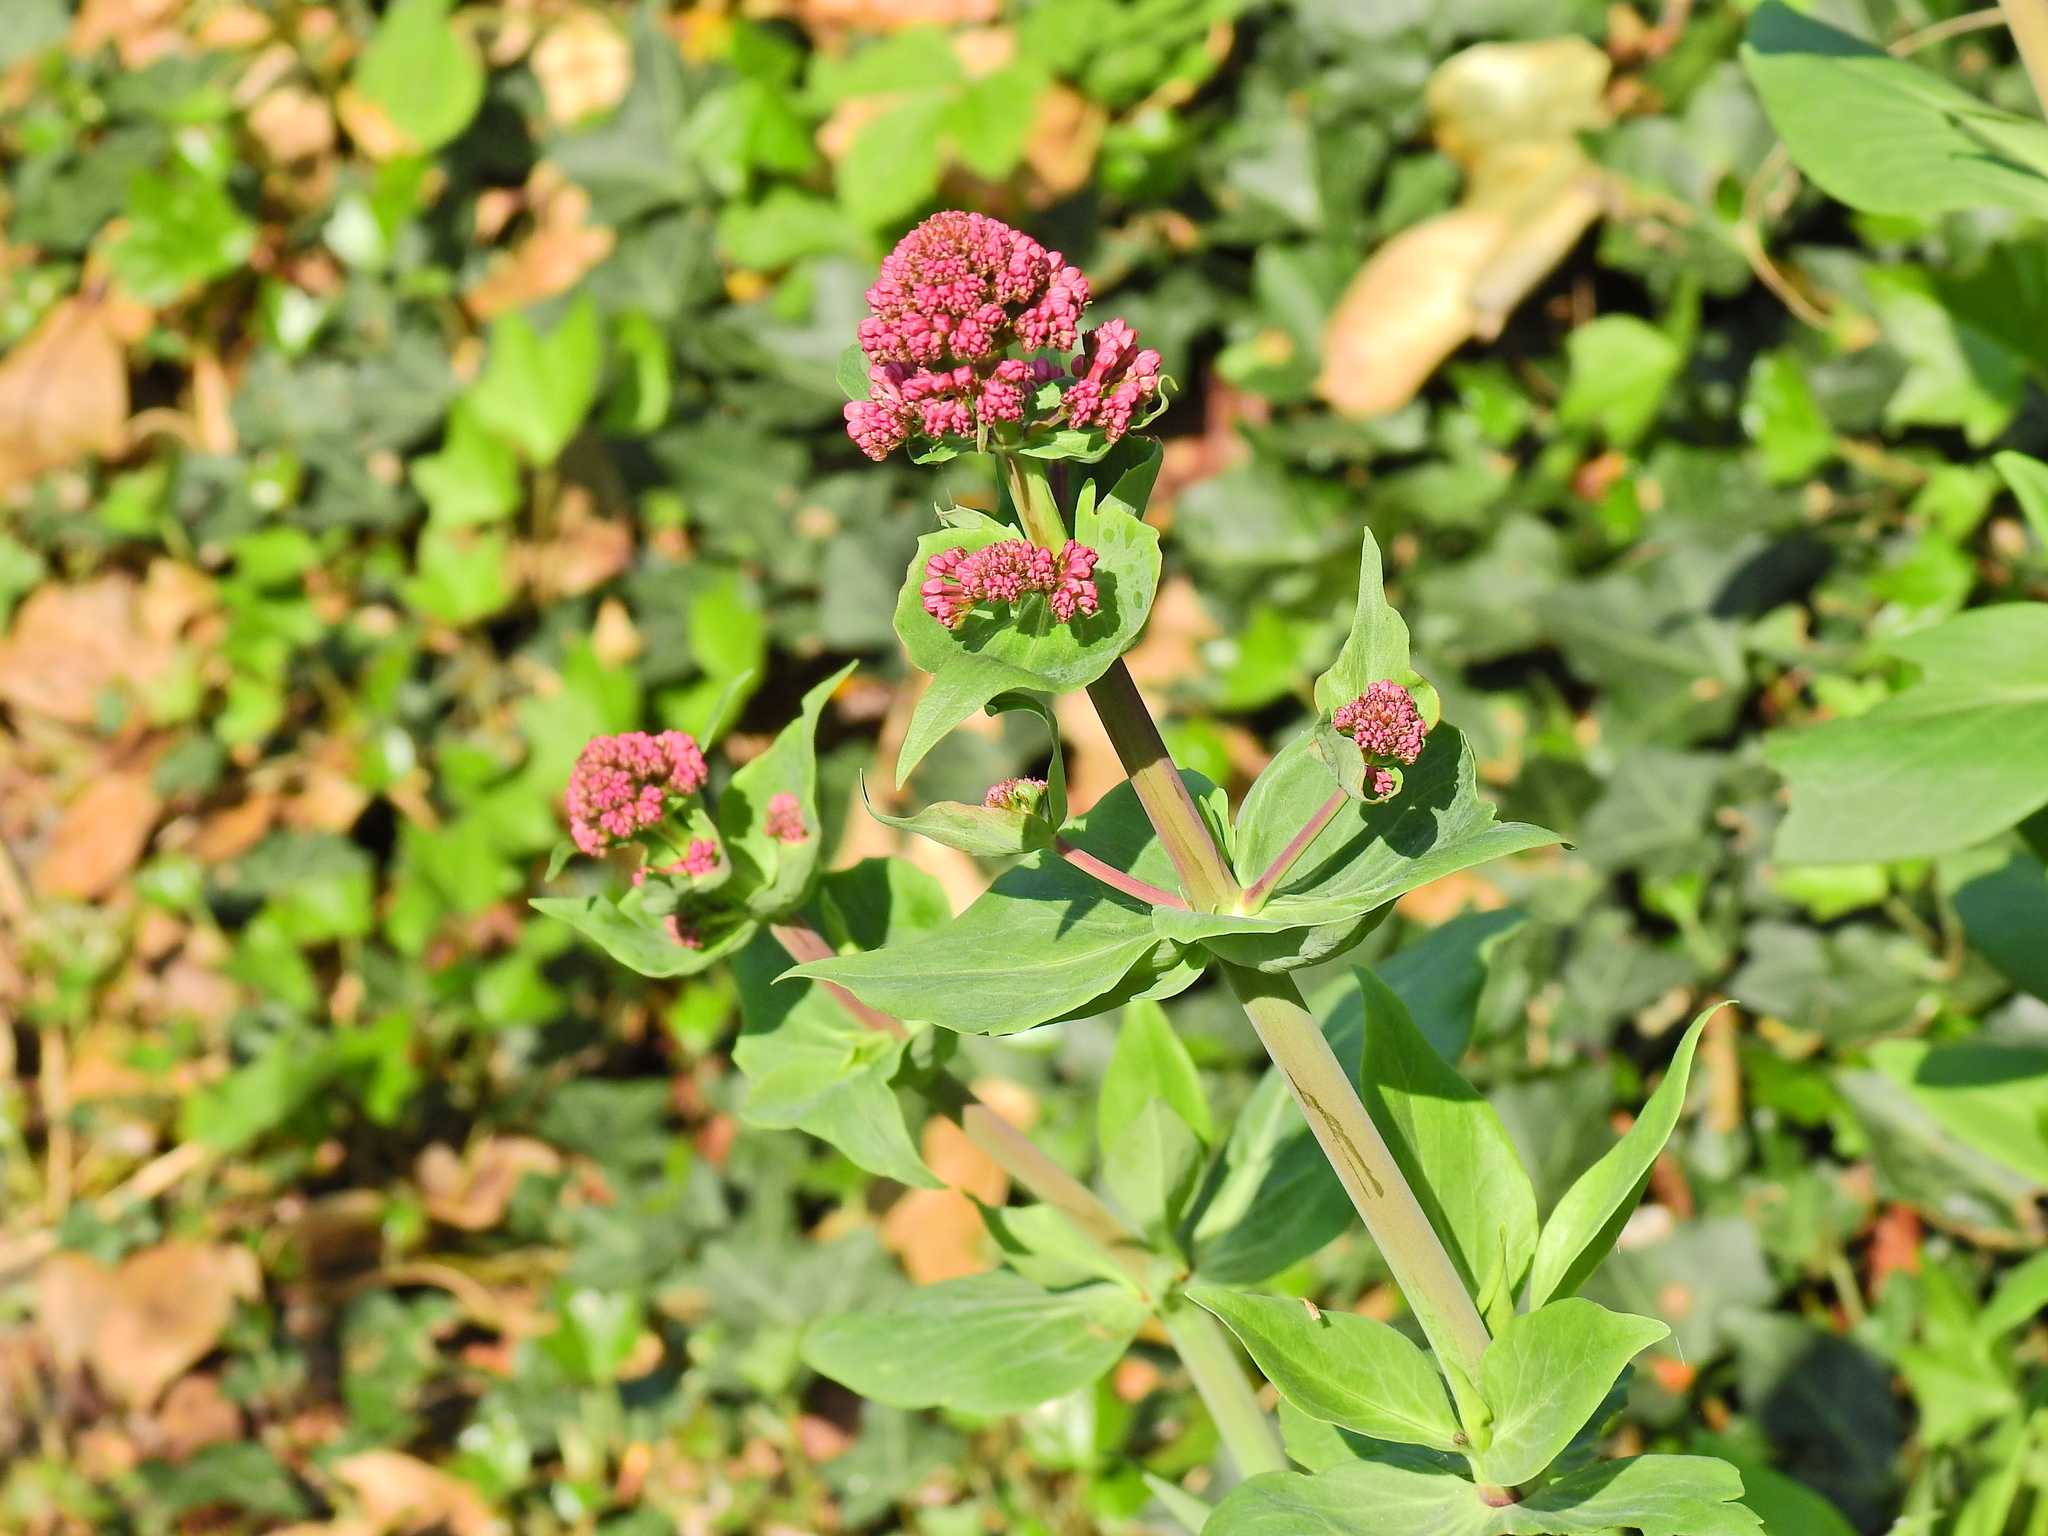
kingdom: Plantae
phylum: Tracheophyta
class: Magnoliopsida
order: Dipsacales
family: Caprifoliaceae
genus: Centranthus
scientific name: Centranthus ruber
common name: Red valerian
